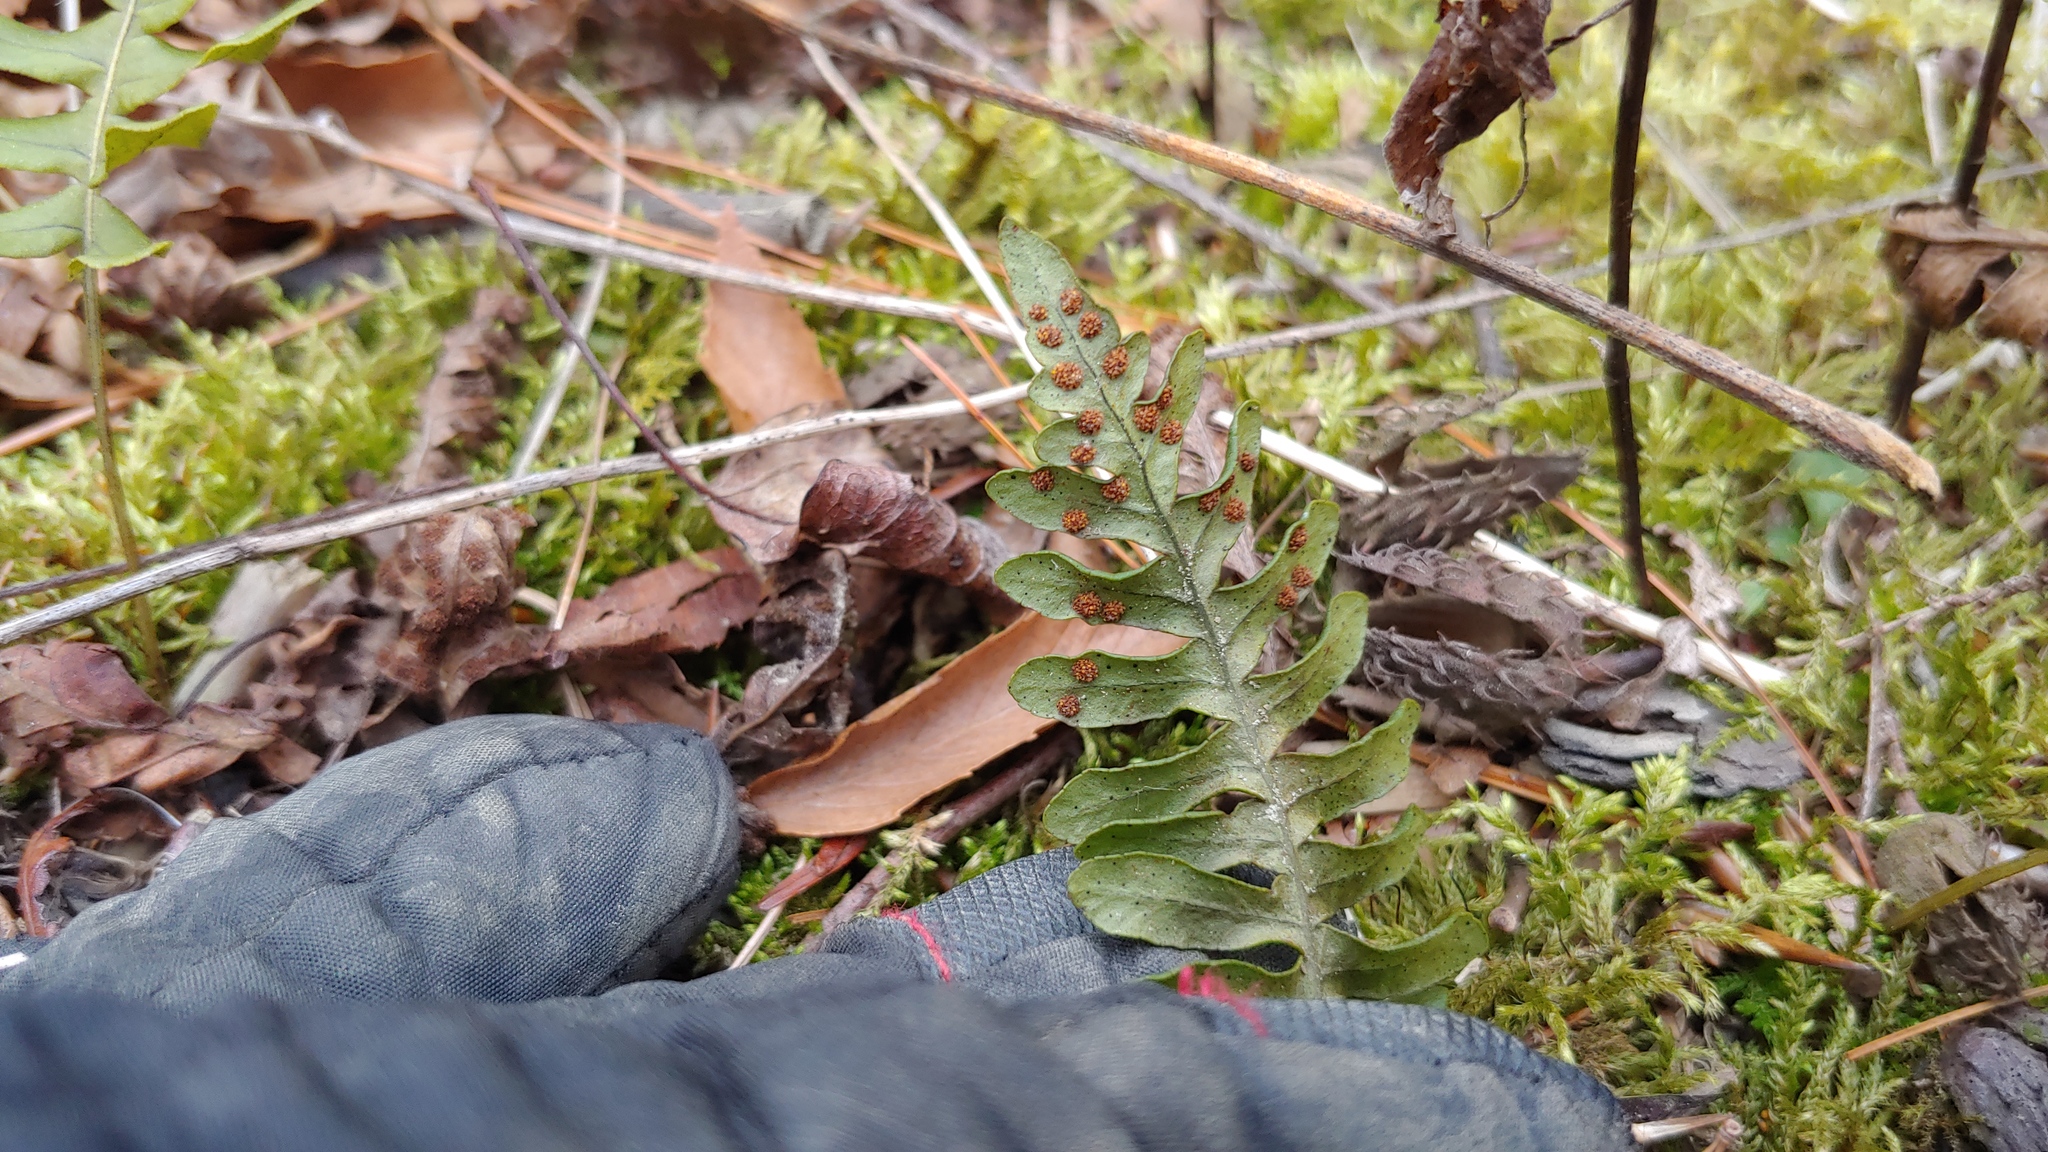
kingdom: Plantae
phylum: Tracheophyta
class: Polypodiopsida
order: Polypodiales
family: Polypodiaceae
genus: Polypodium
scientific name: Polypodium virginianum
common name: American wall fern
